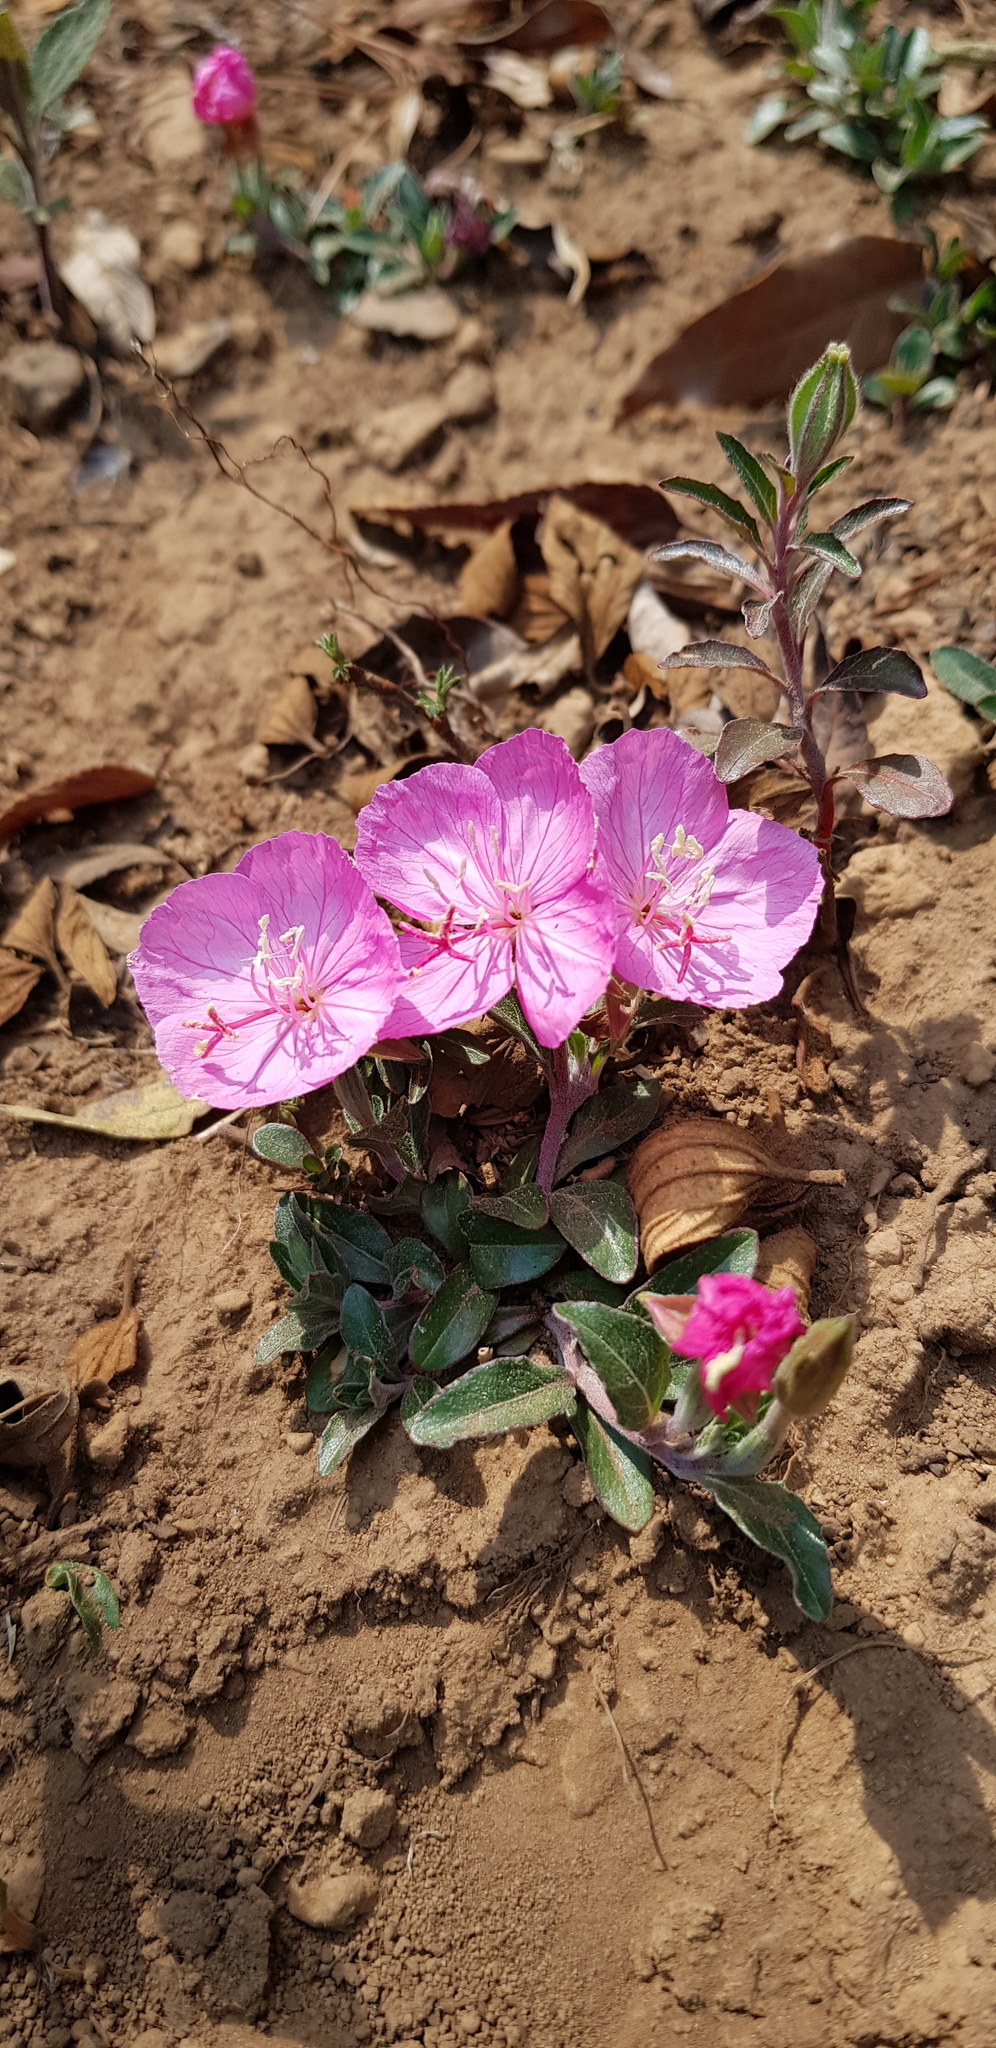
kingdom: Plantae
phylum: Tracheophyta
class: Magnoliopsida
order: Myrtales
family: Onagraceae
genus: Oenothera
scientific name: Oenothera speciosa
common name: White evening-primrose
